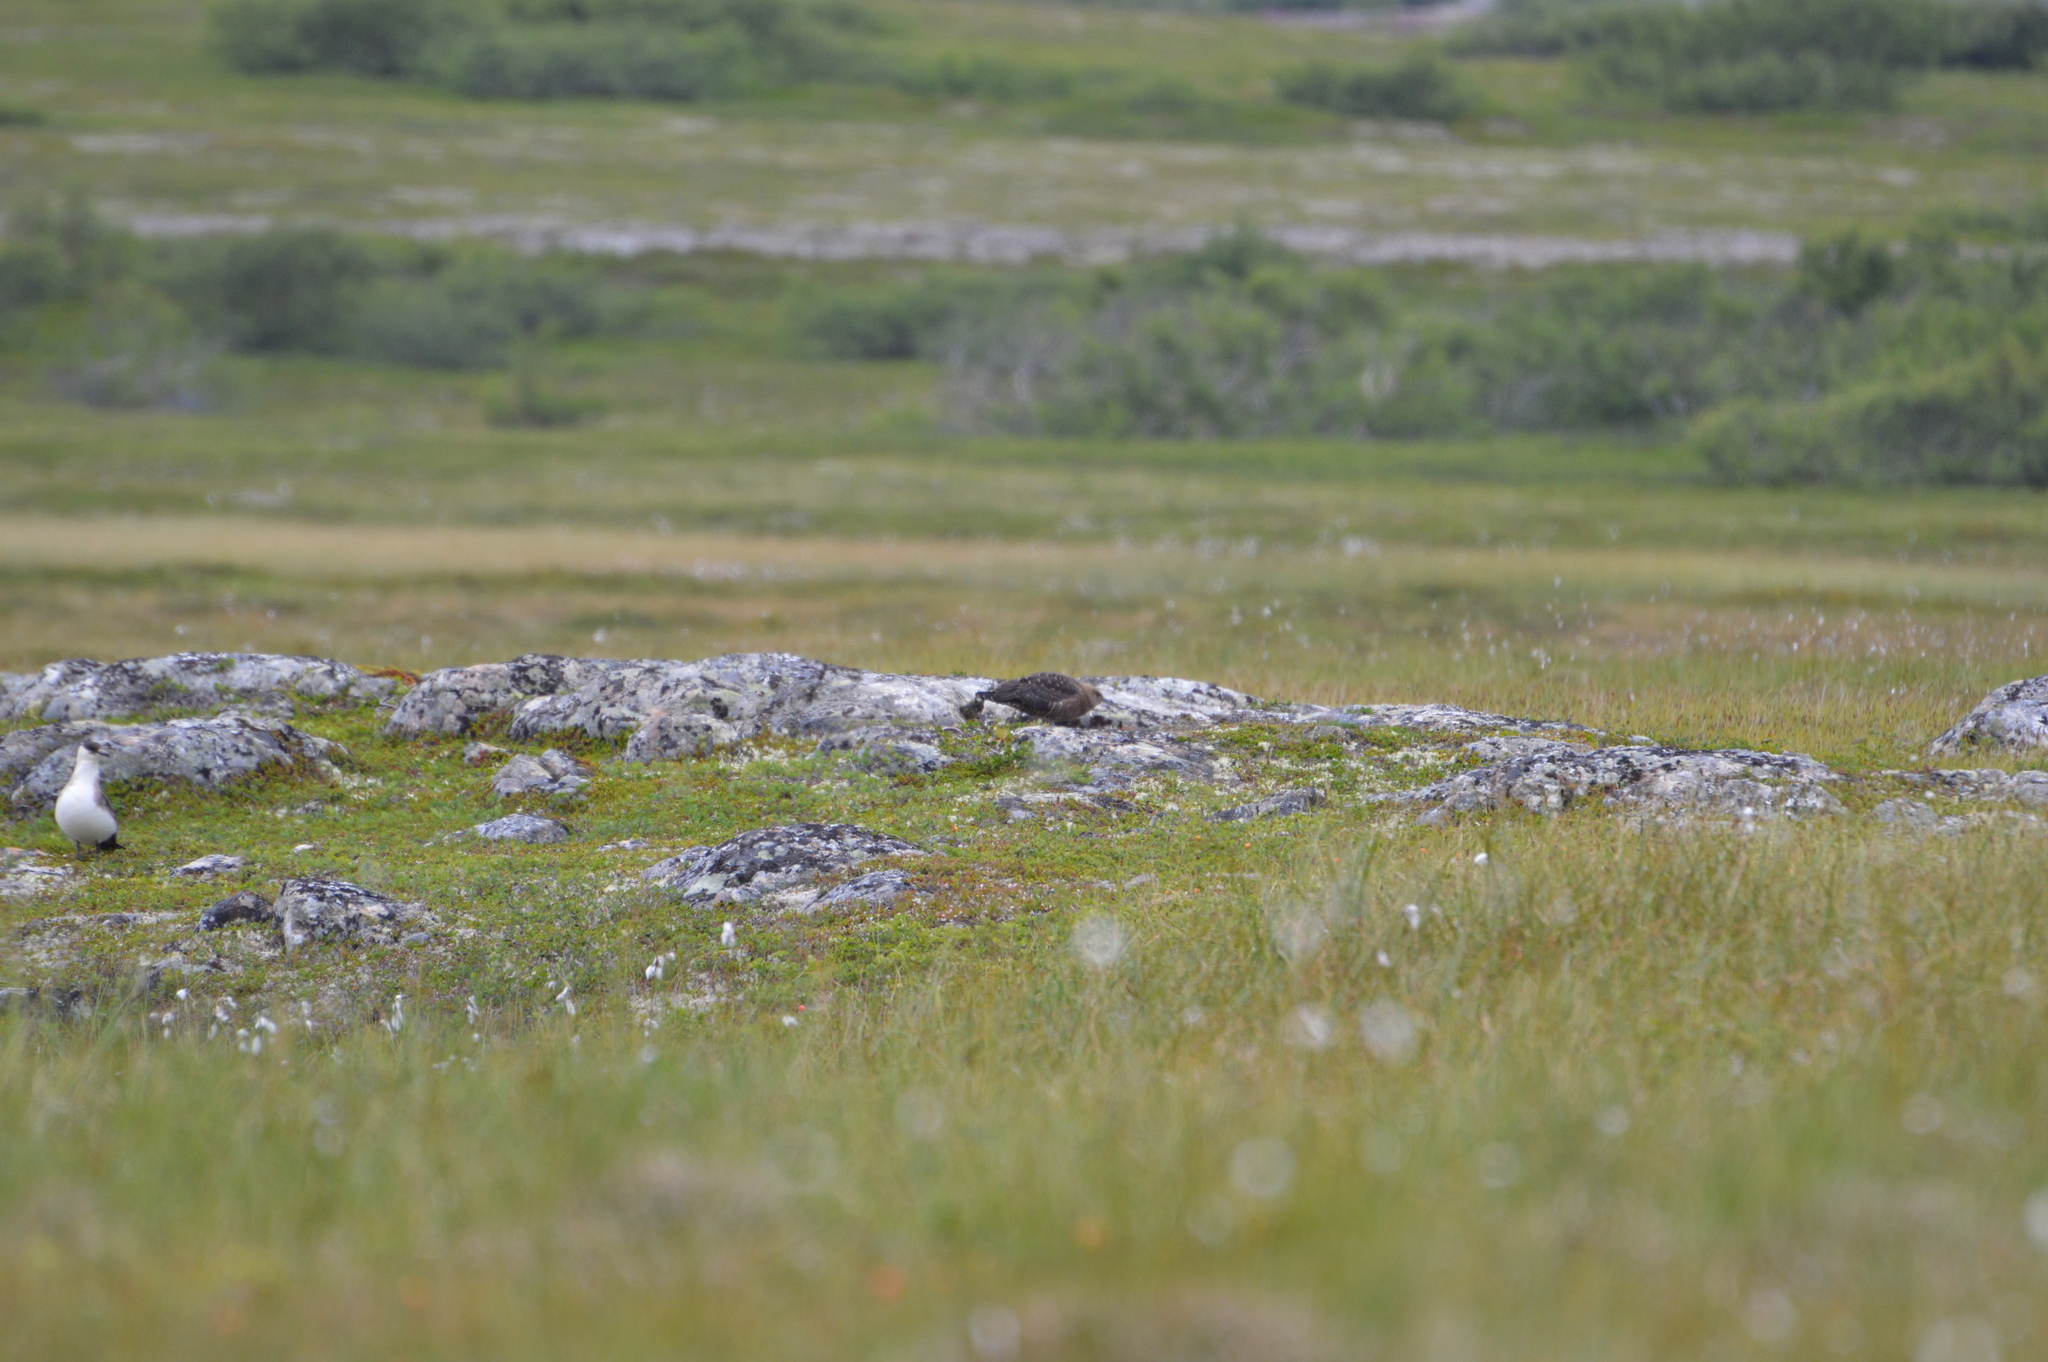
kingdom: Animalia
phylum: Chordata
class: Aves
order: Charadriiformes
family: Stercorariidae
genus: Stercorarius
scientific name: Stercorarius longicaudus
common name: Long-tailed jaeger
